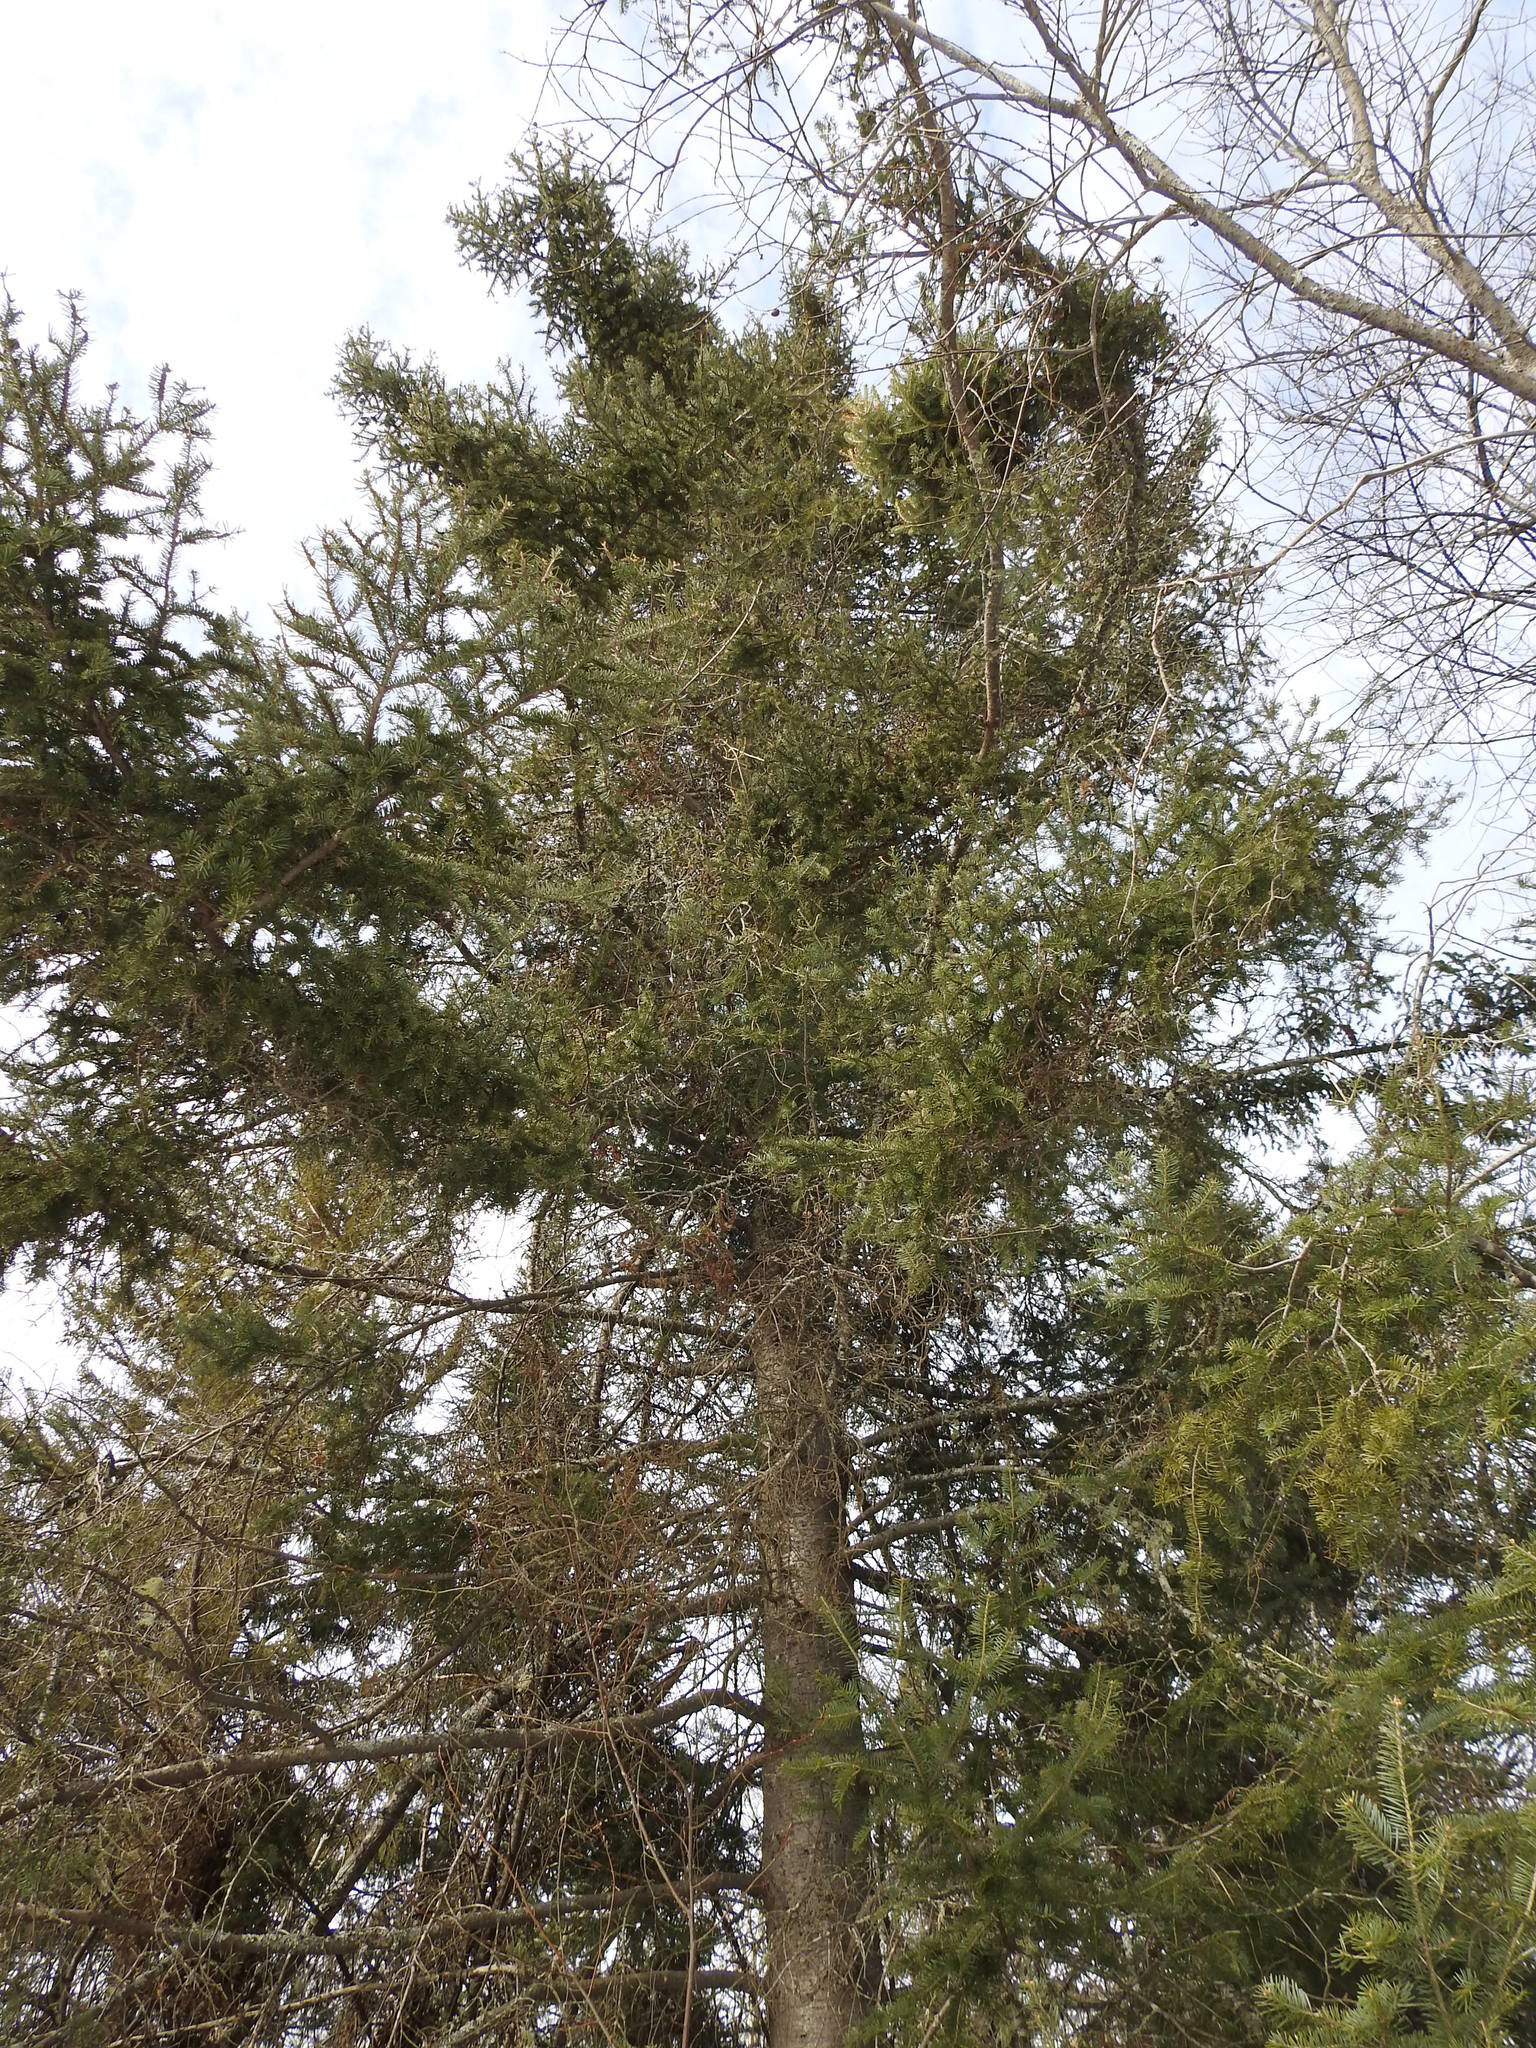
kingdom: Plantae
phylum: Tracheophyta
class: Pinopsida
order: Pinales
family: Pinaceae
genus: Abies
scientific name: Abies balsamea
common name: Balsam fir
